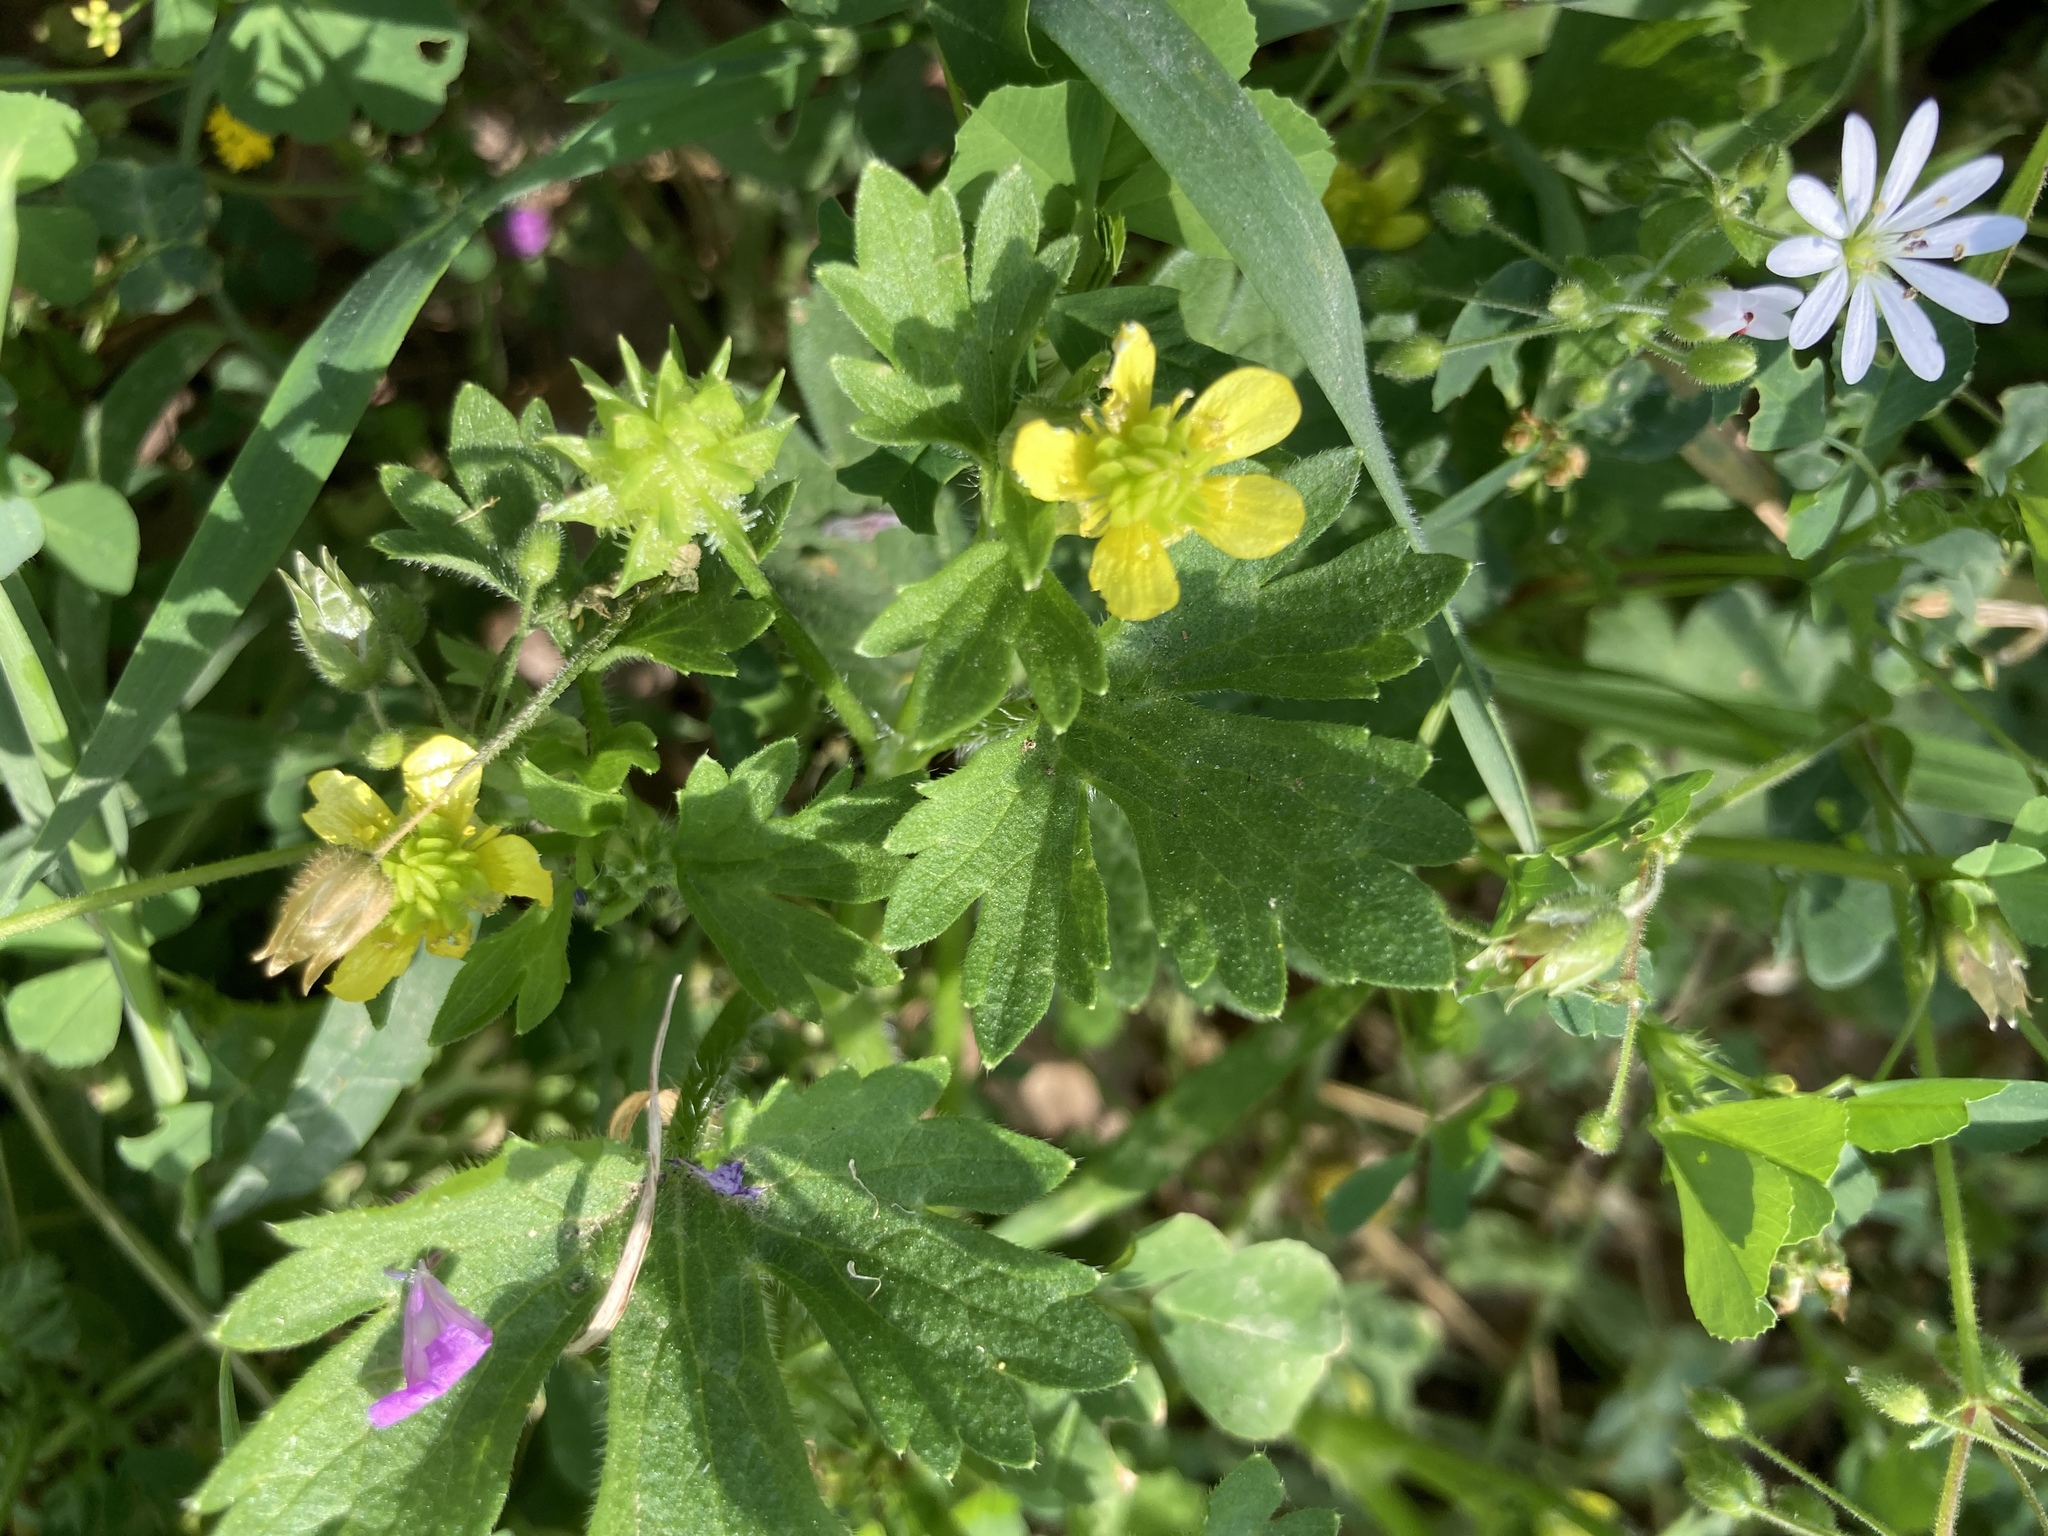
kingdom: Plantae
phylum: Tracheophyta
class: Magnoliopsida
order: Ranunculales
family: Ranunculaceae
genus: Ranunculus
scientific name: Ranunculus muricatus
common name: Rough-fruited buttercup
